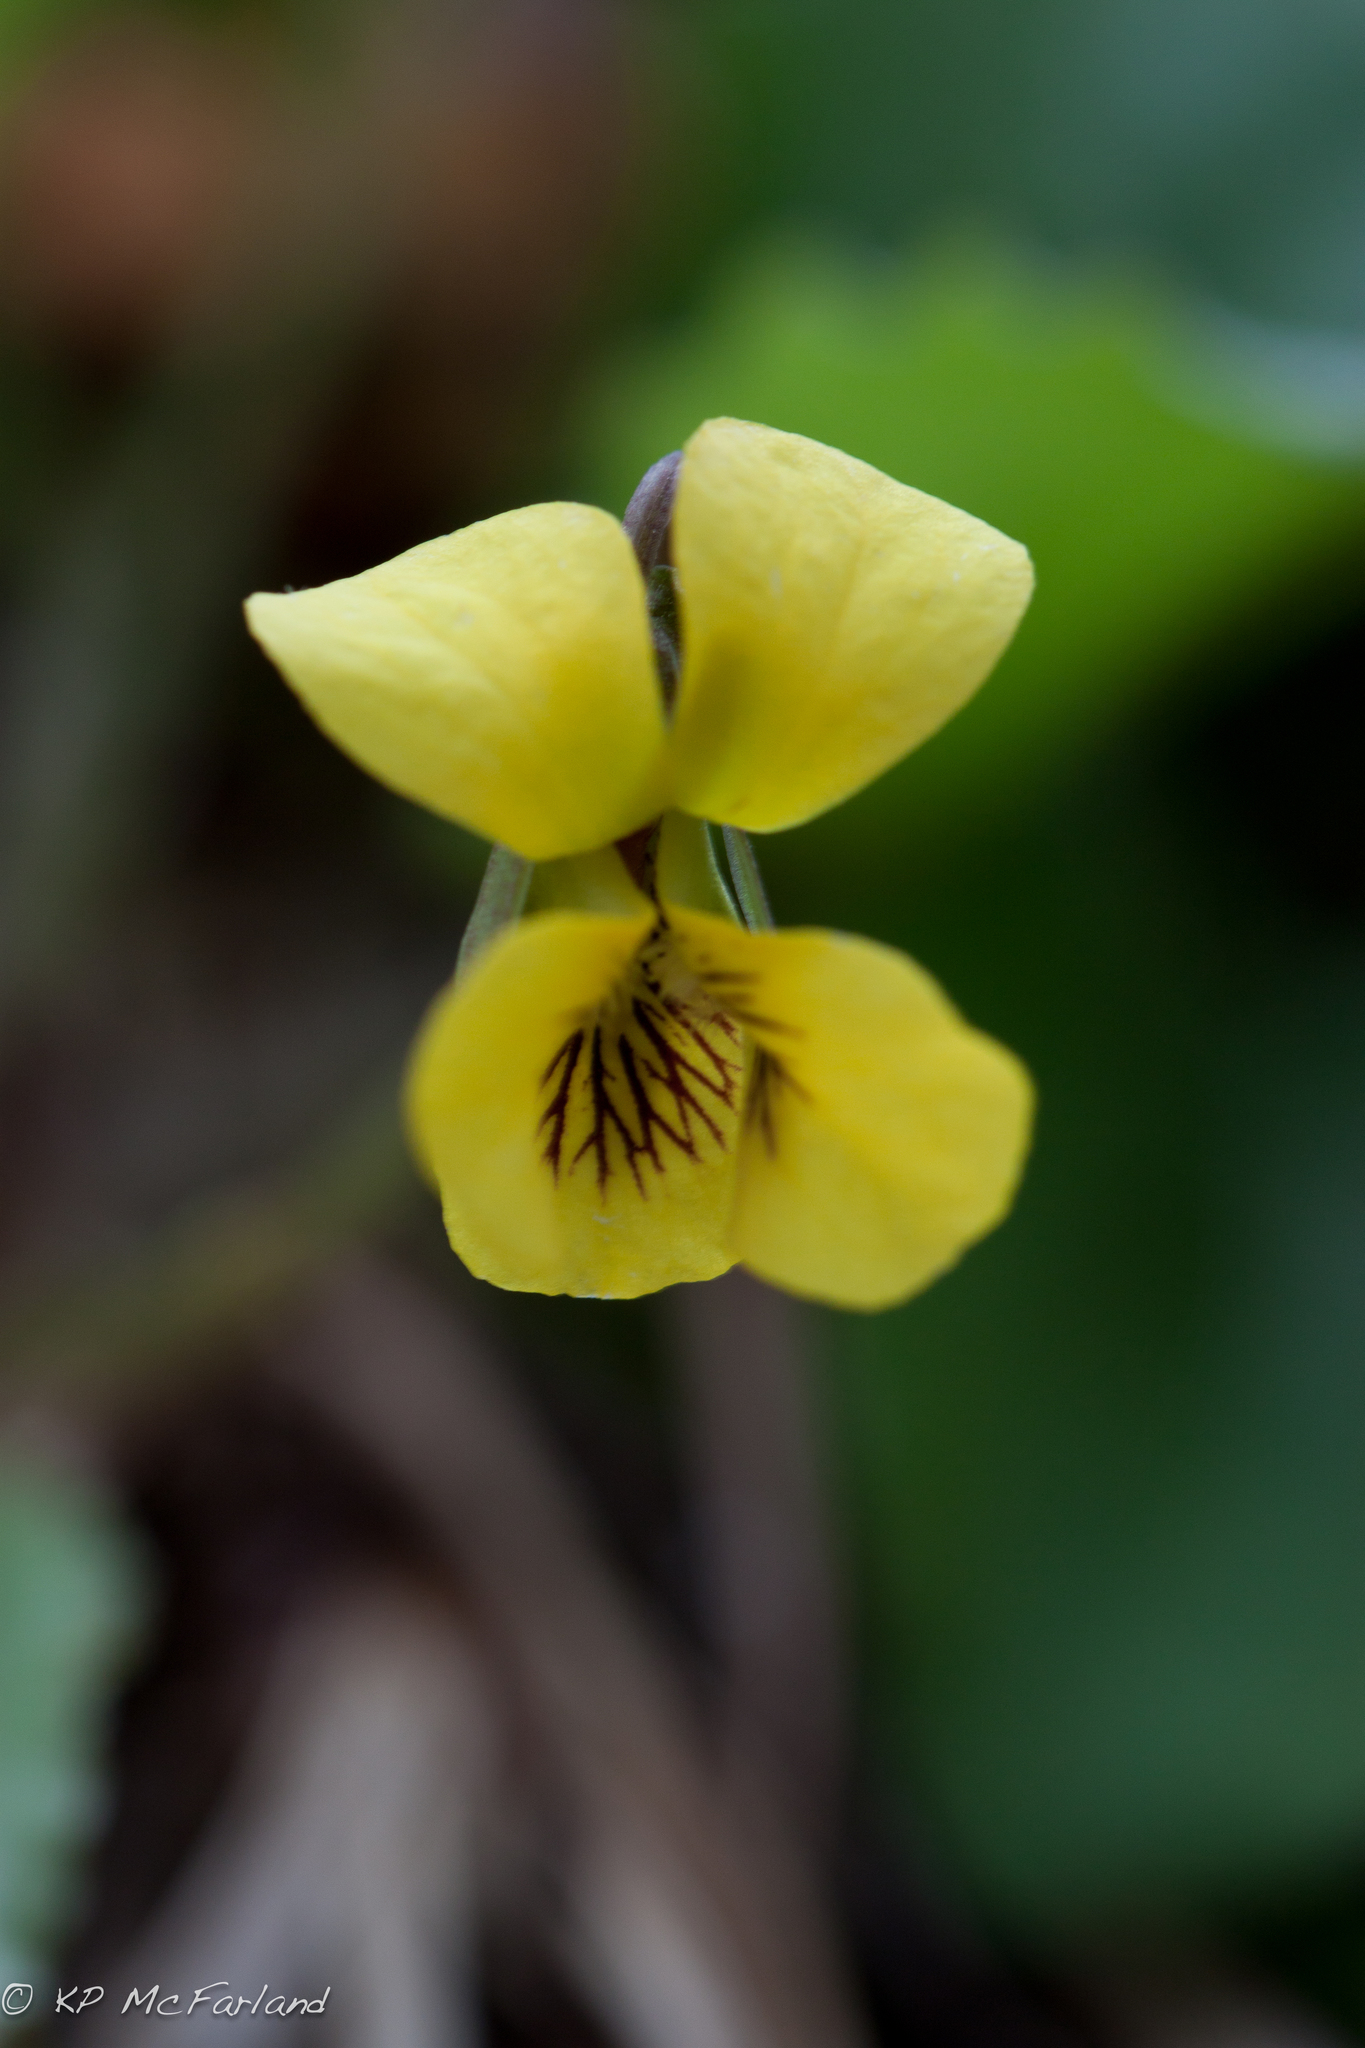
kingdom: Plantae
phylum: Tracheophyta
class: Magnoliopsida
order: Malpighiales
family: Violaceae
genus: Viola
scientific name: Viola rotundifolia
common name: Early yellow violet
